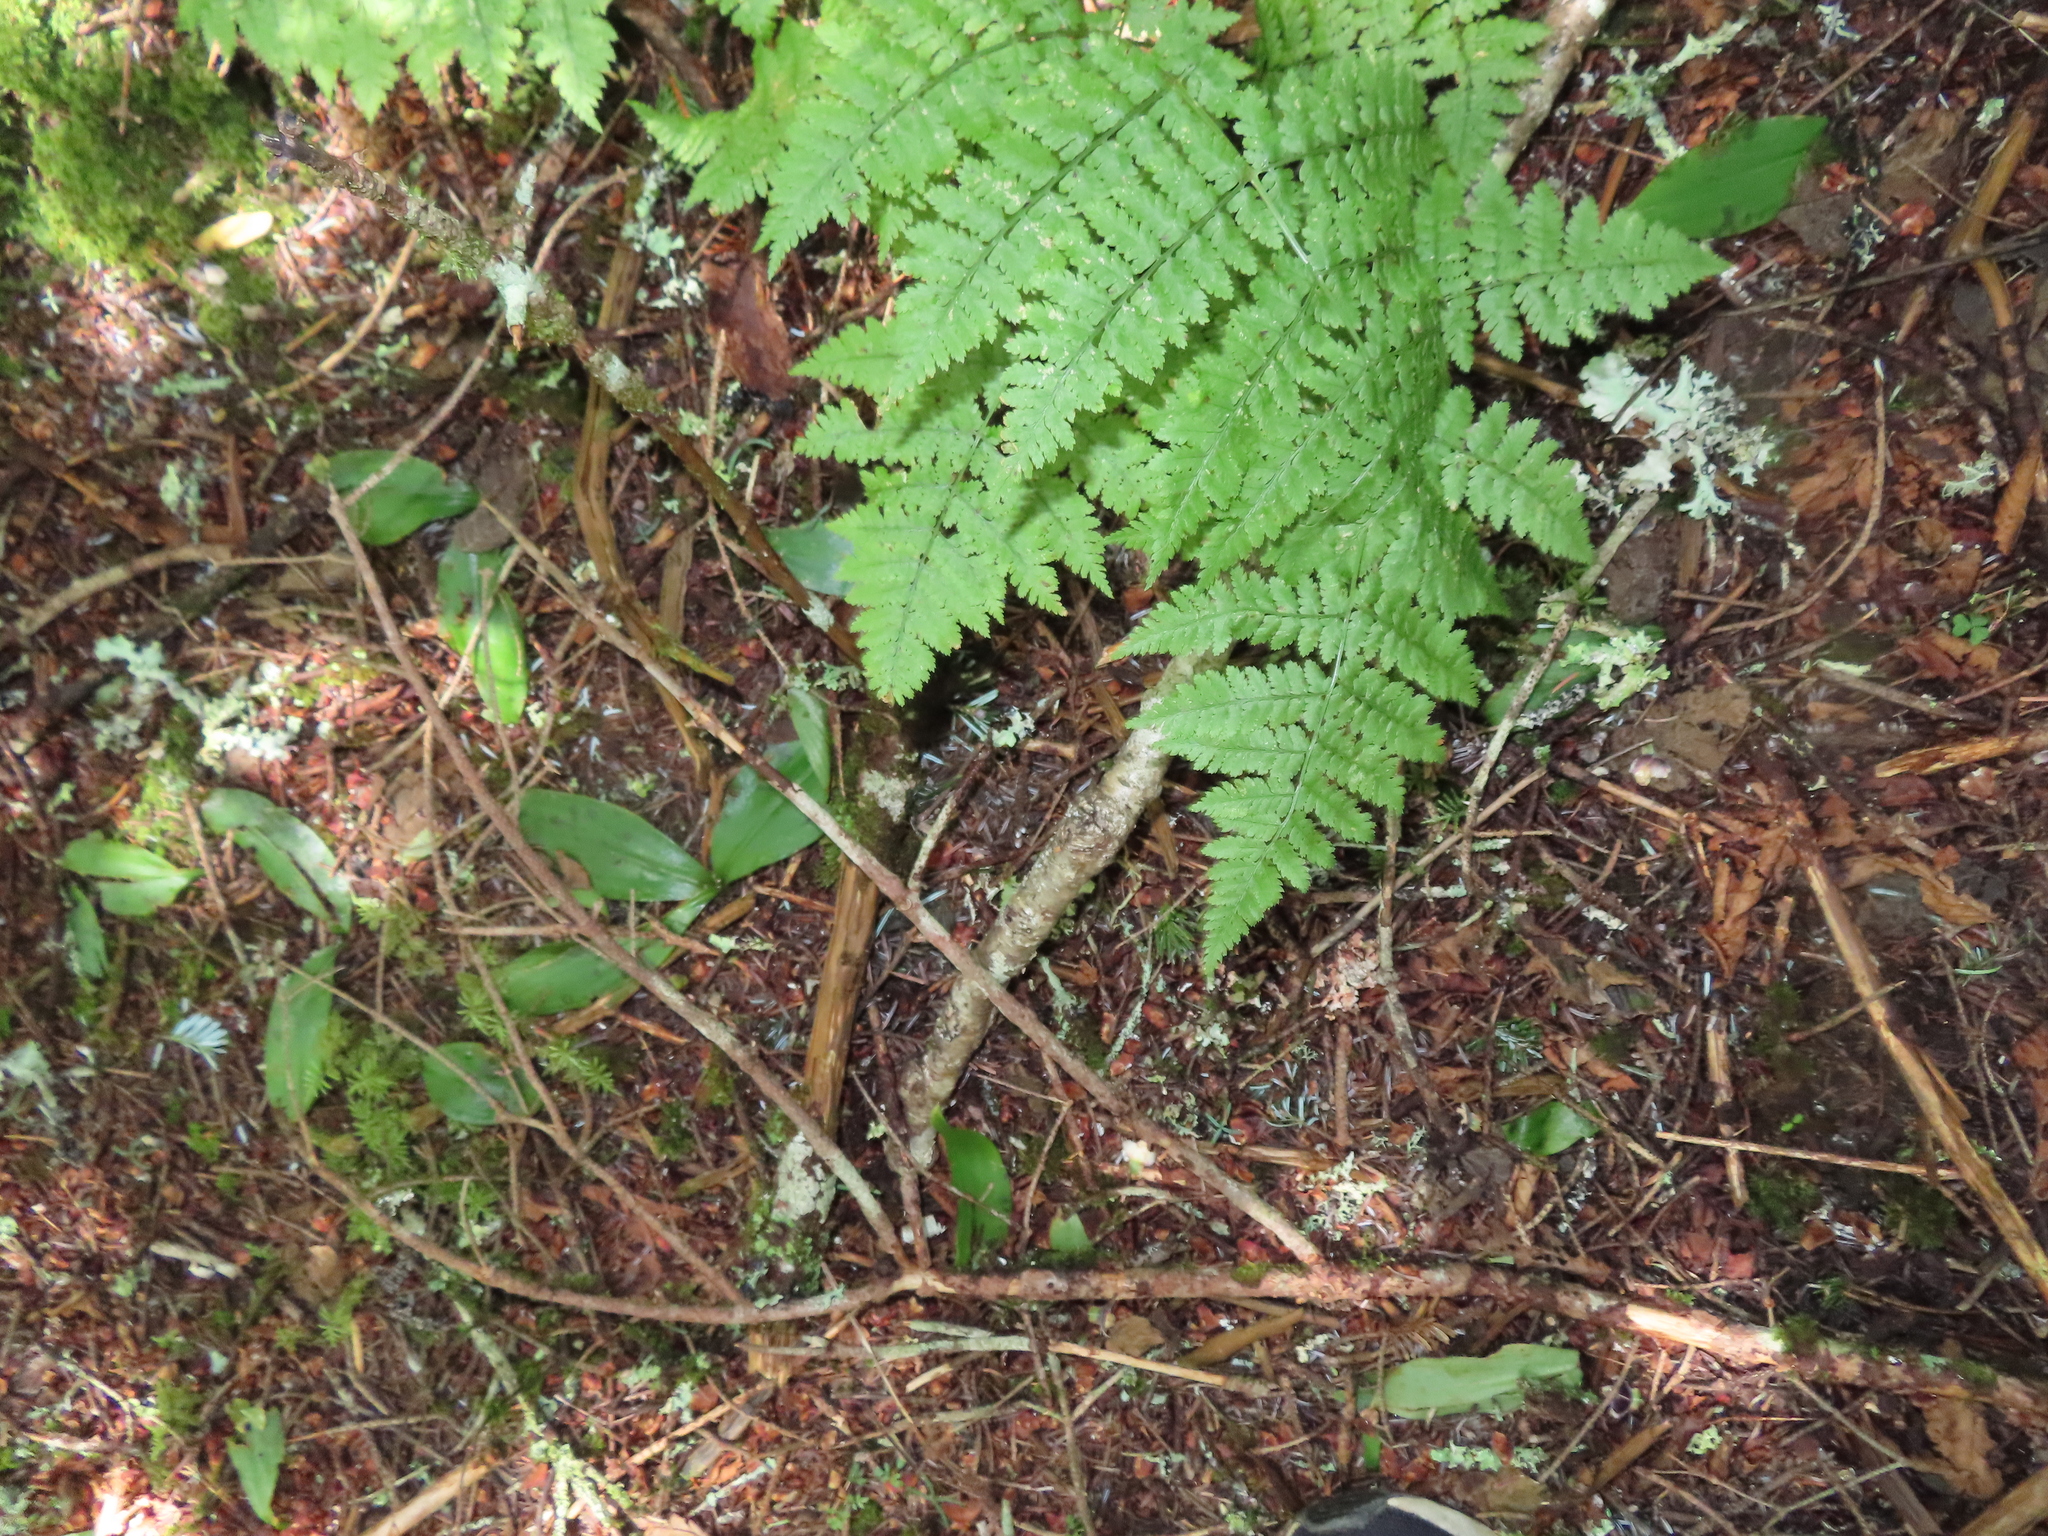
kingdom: Plantae
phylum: Tracheophyta
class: Polypodiopsida
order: Polypodiales
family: Dryopteridaceae
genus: Dryopteris
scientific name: Dryopteris campyloptera
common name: Mountain wood fern
